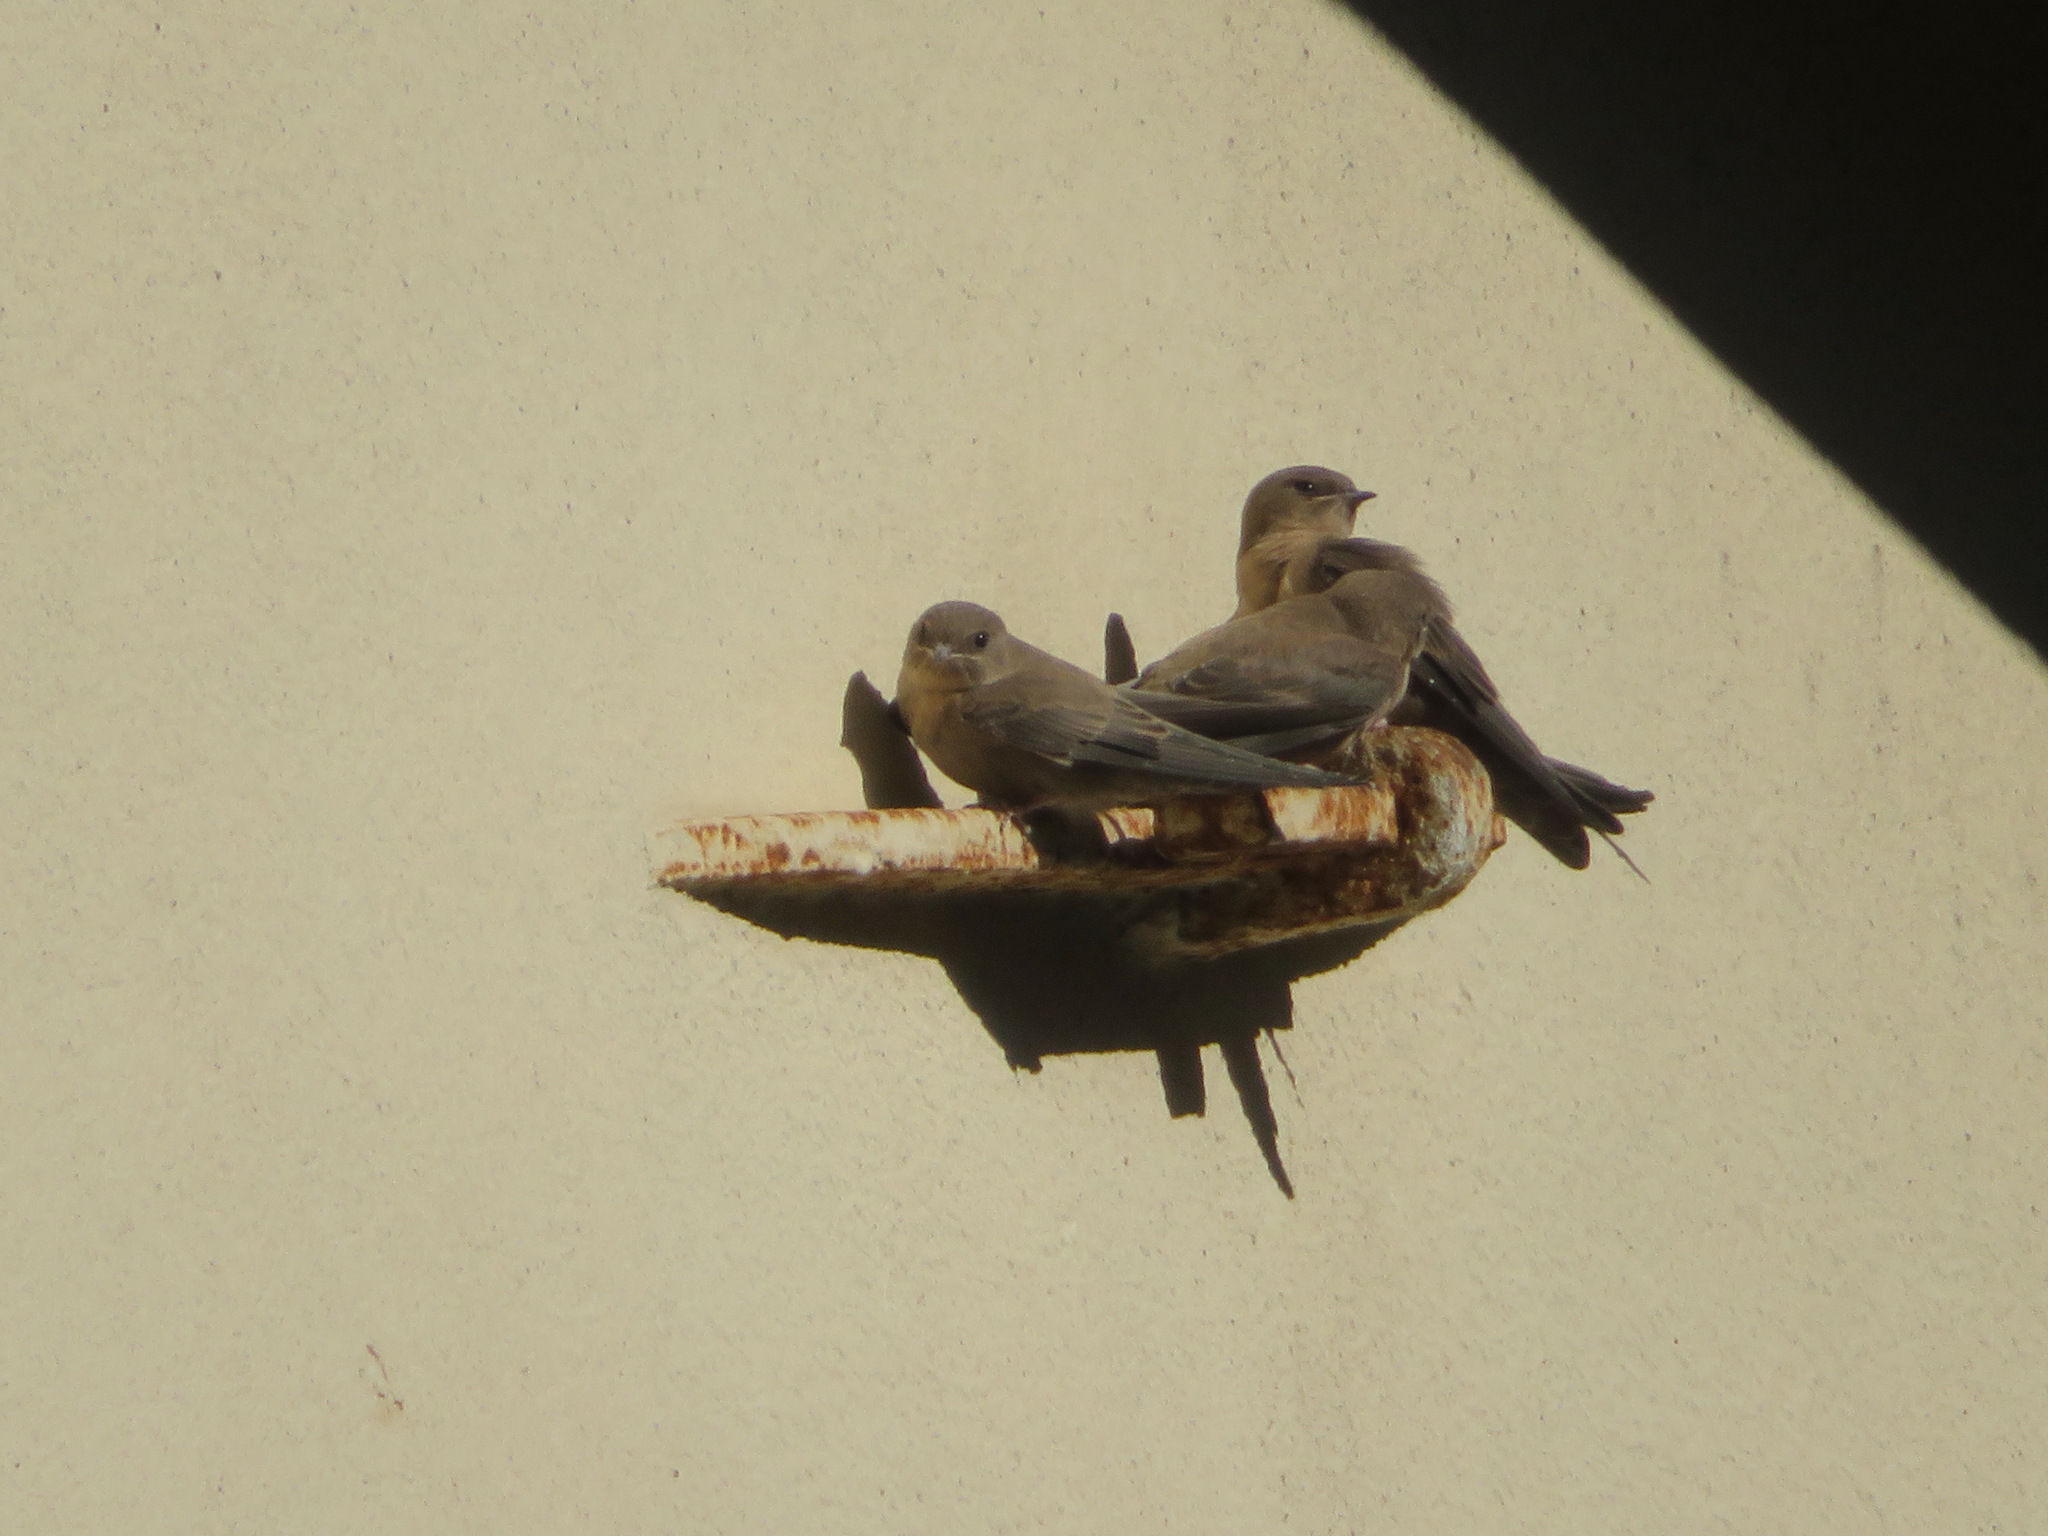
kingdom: Animalia
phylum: Chordata
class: Aves
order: Passeriformes
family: Hirundinidae
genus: Ptyonoprogne
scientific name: Ptyonoprogne rupestris
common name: Eurasian crag martin
